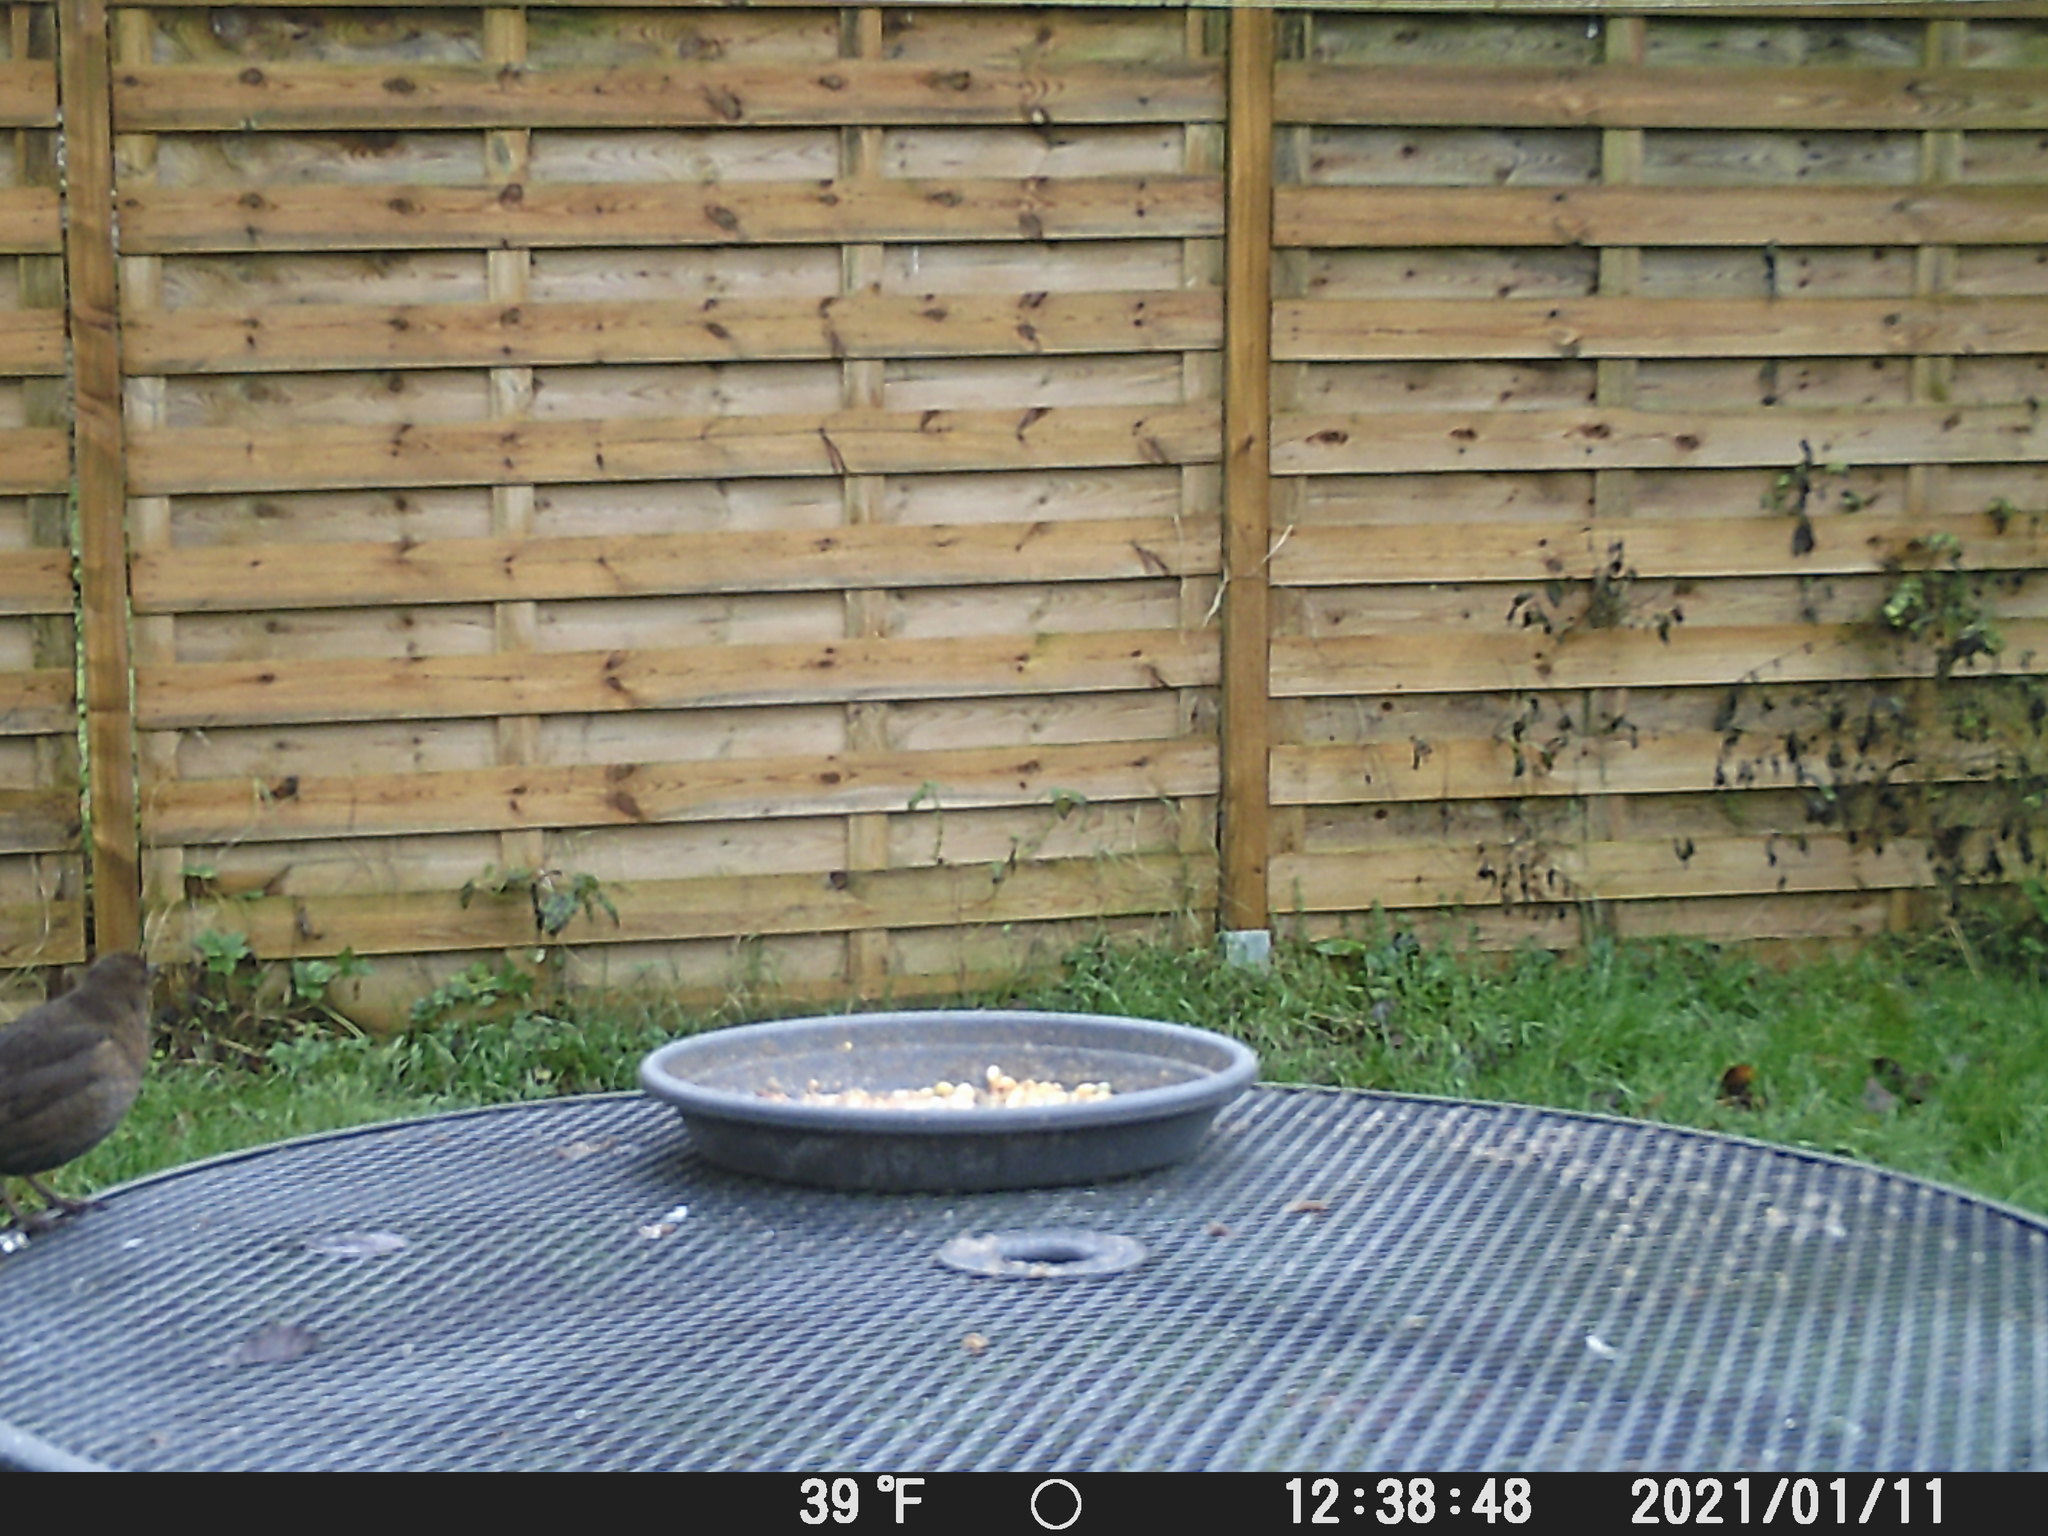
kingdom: Animalia
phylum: Chordata
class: Aves
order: Passeriformes
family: Turdidae
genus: Turdus
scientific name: Turdus merula
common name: Common blackbird
